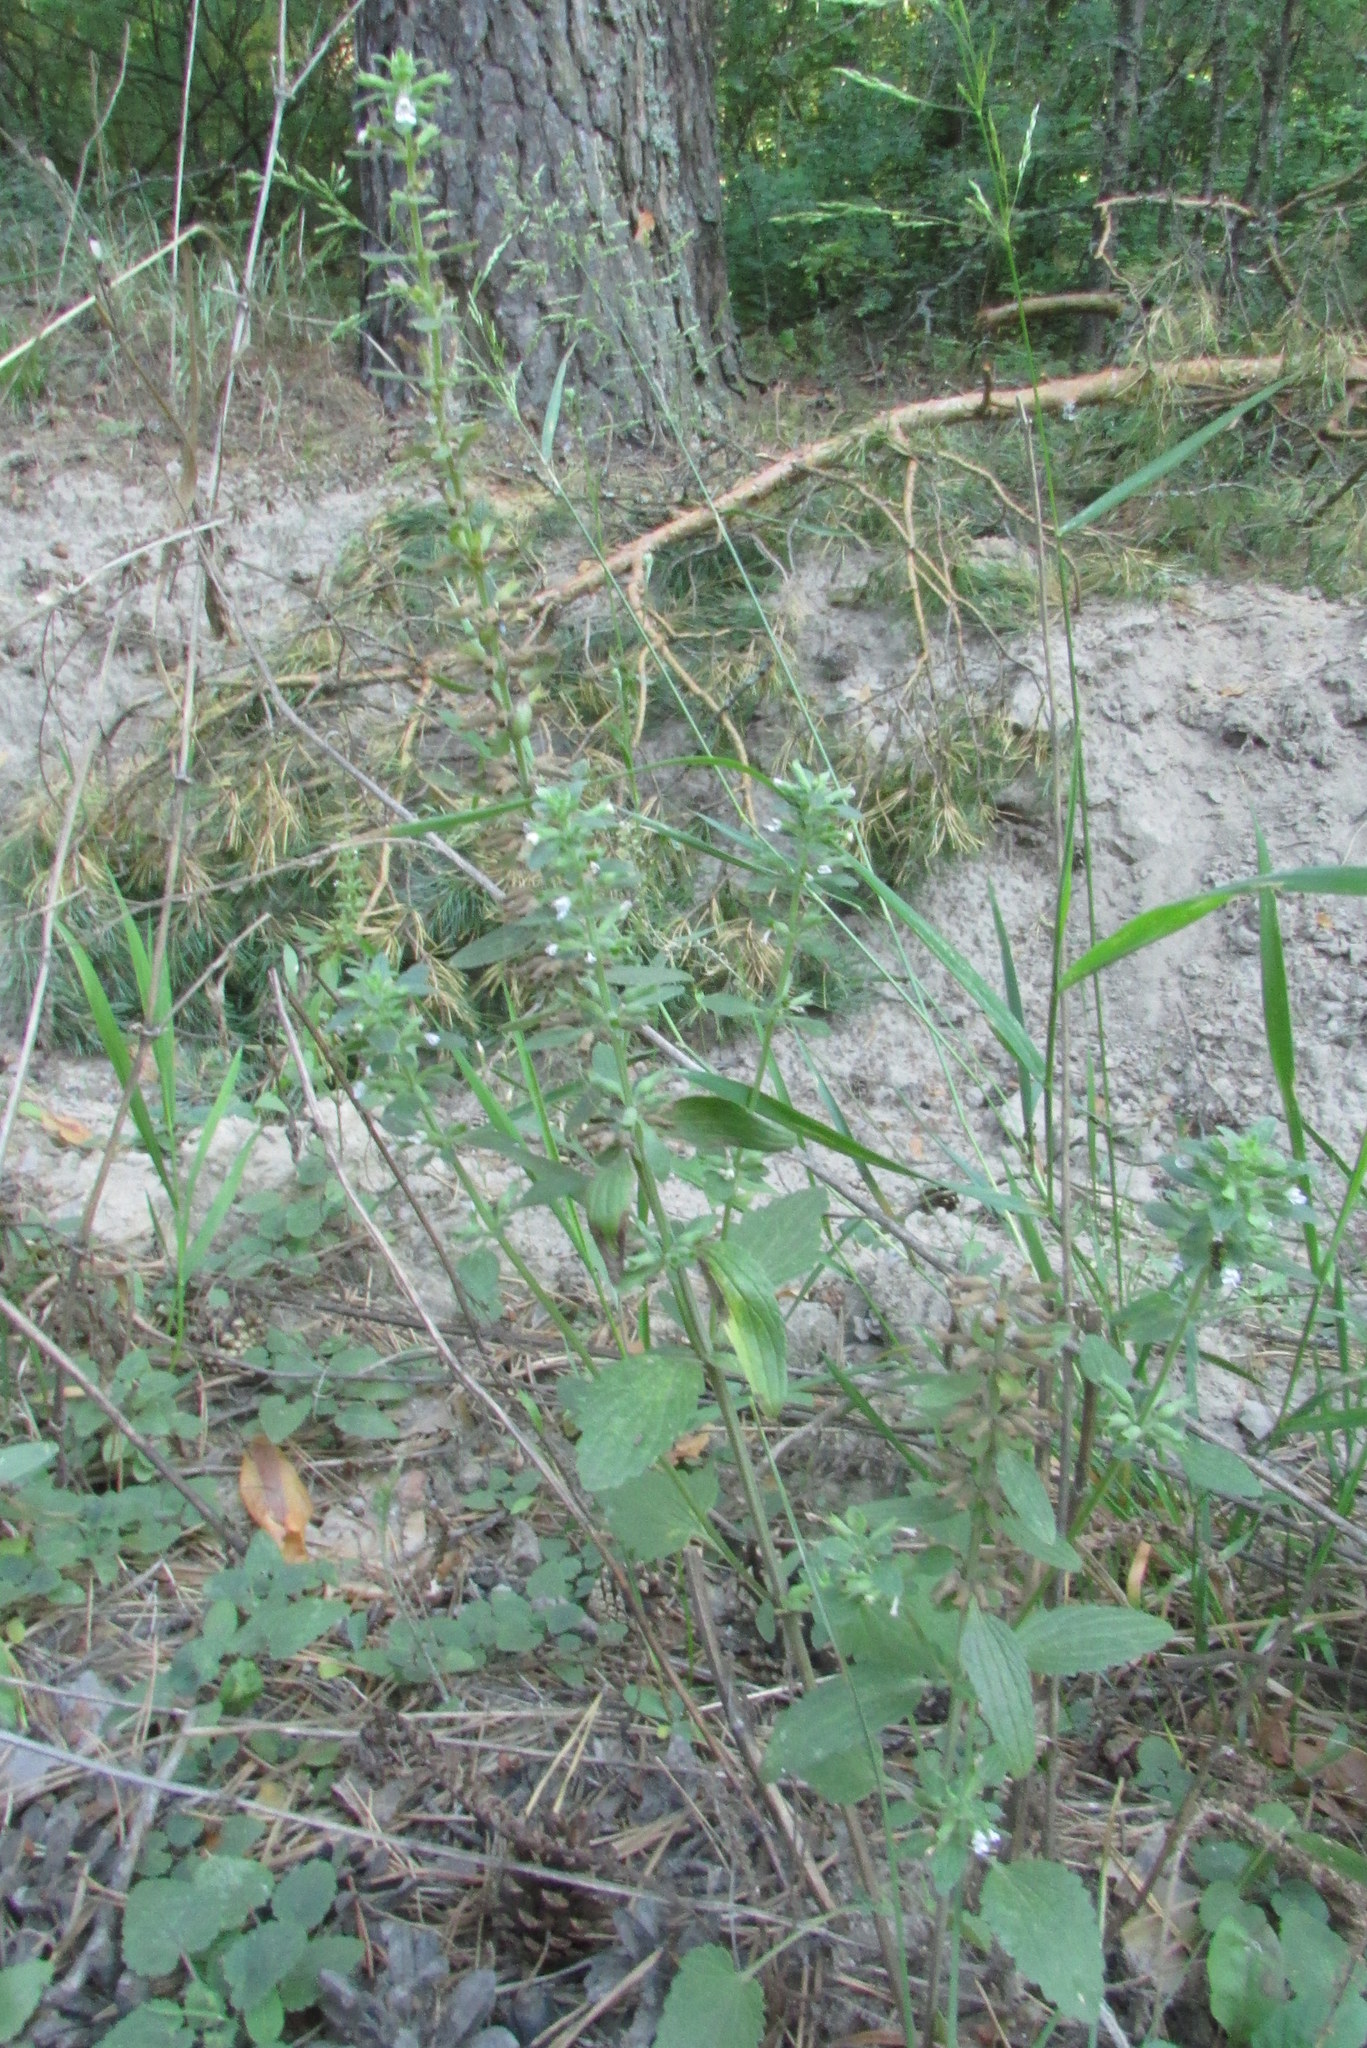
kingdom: Plantae
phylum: Tracheophyta
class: Magnoliopsida
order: Lamiales
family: Lamiaceae
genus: Dracocephalum
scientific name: Dracocephalum thymiflorum
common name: Thymeleaf dragonhead
